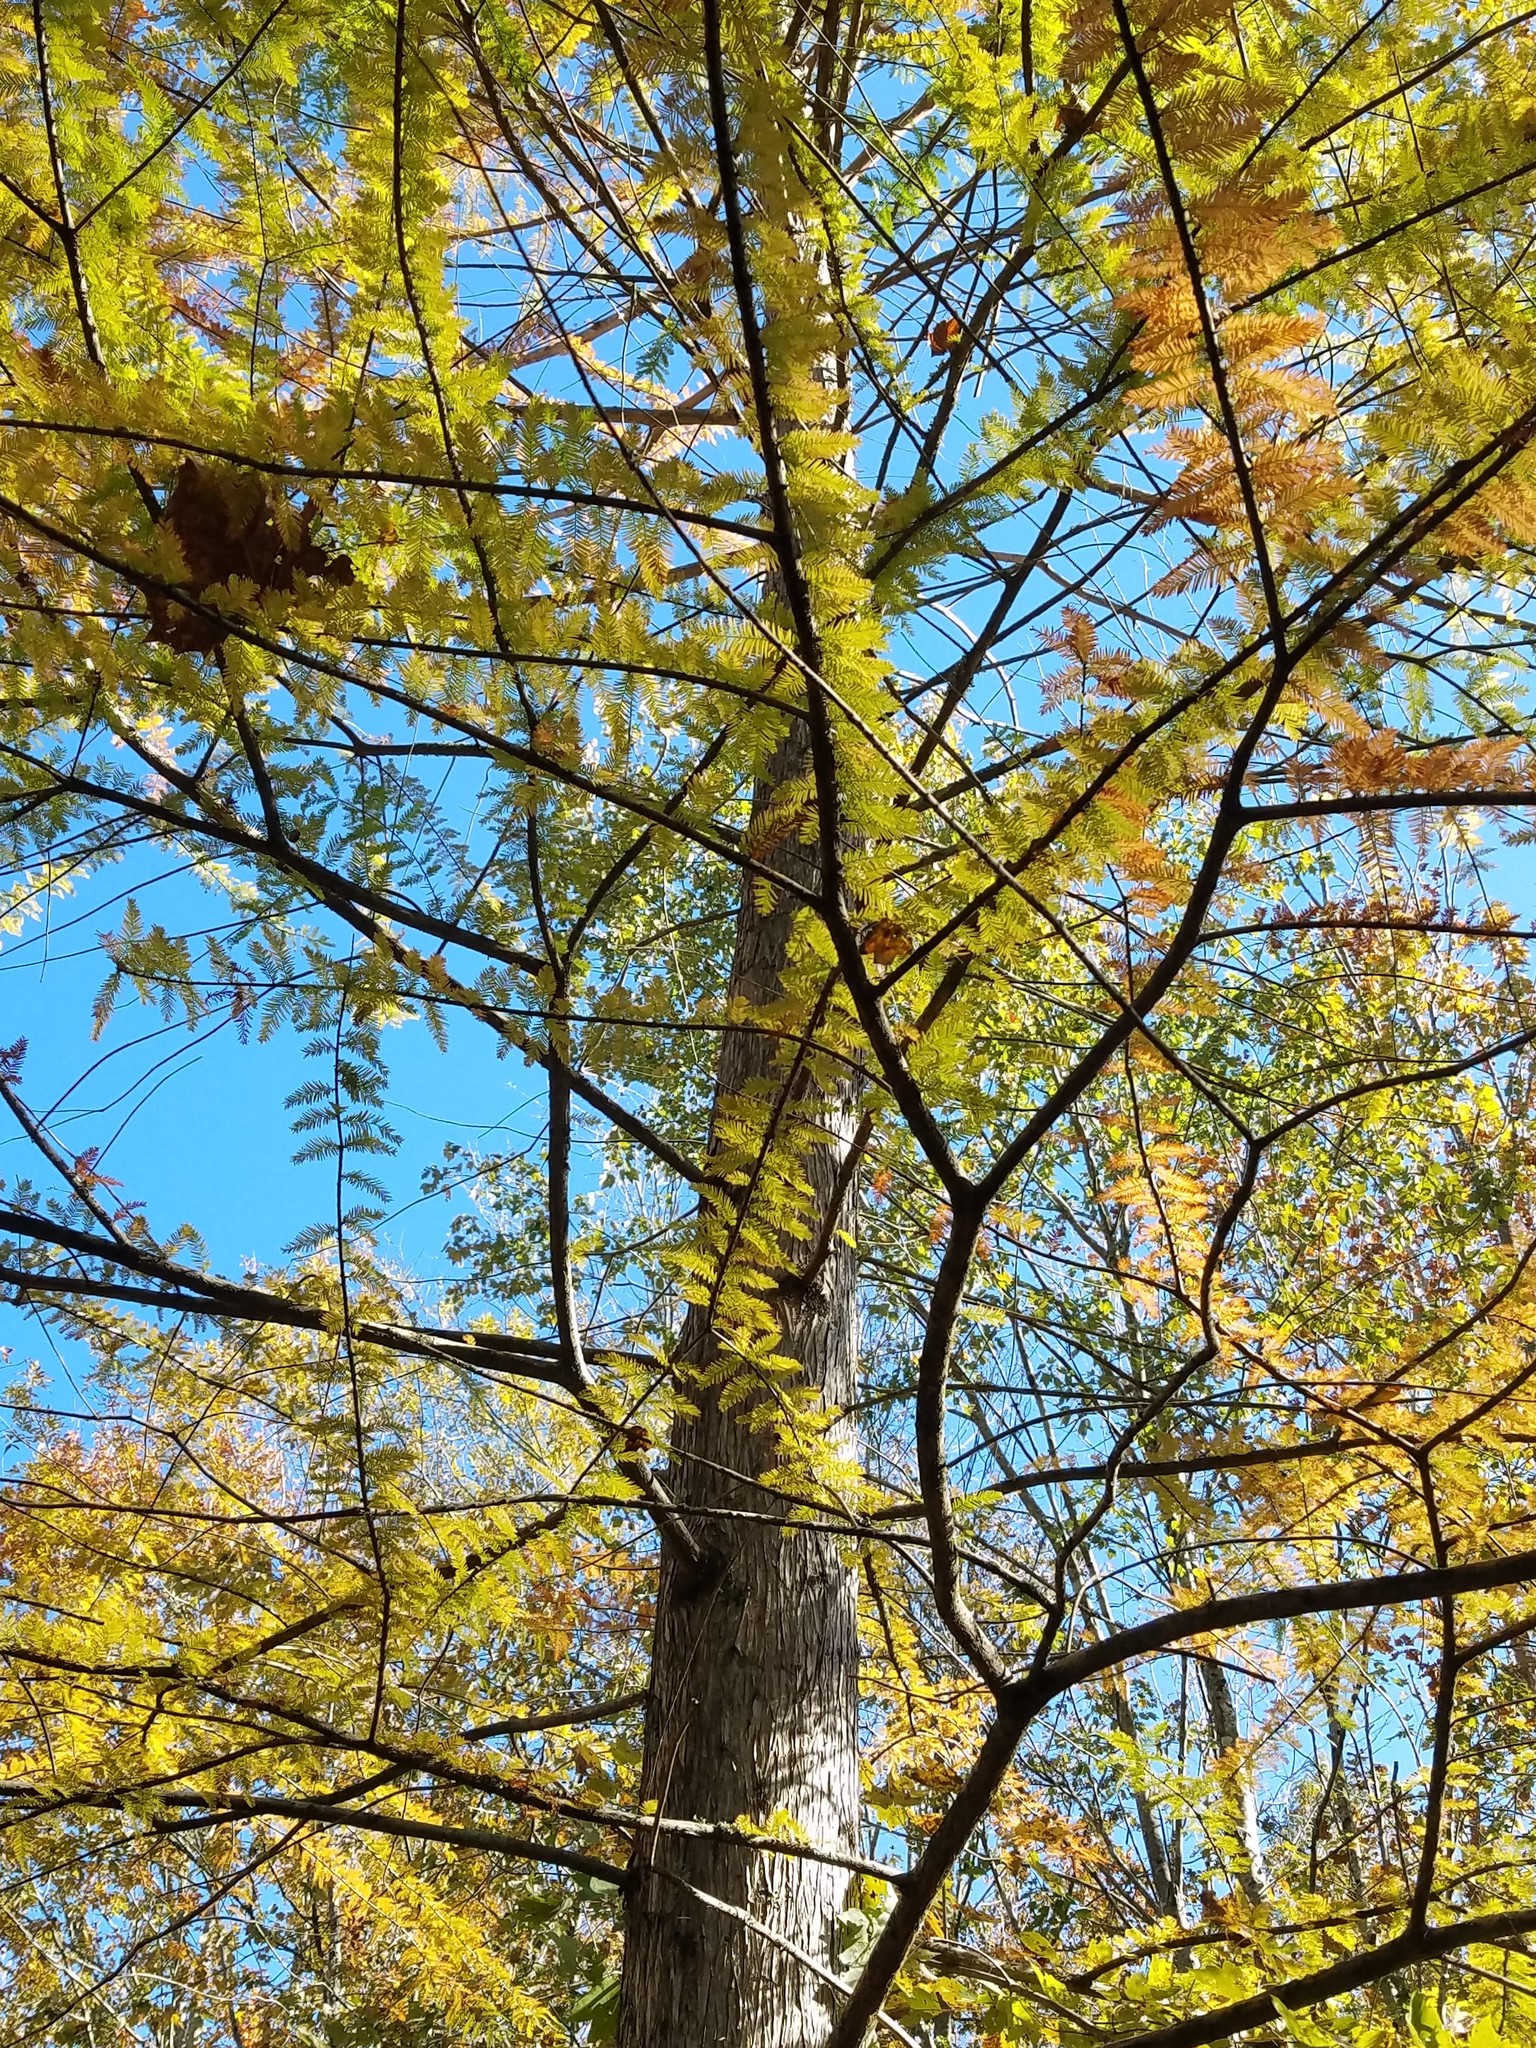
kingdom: Plantae
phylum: Tracheophyta
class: Pinopsida
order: Pinales
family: Cupressaceae
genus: Taxodium
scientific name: Taxodium distichum
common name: Bald cypress
